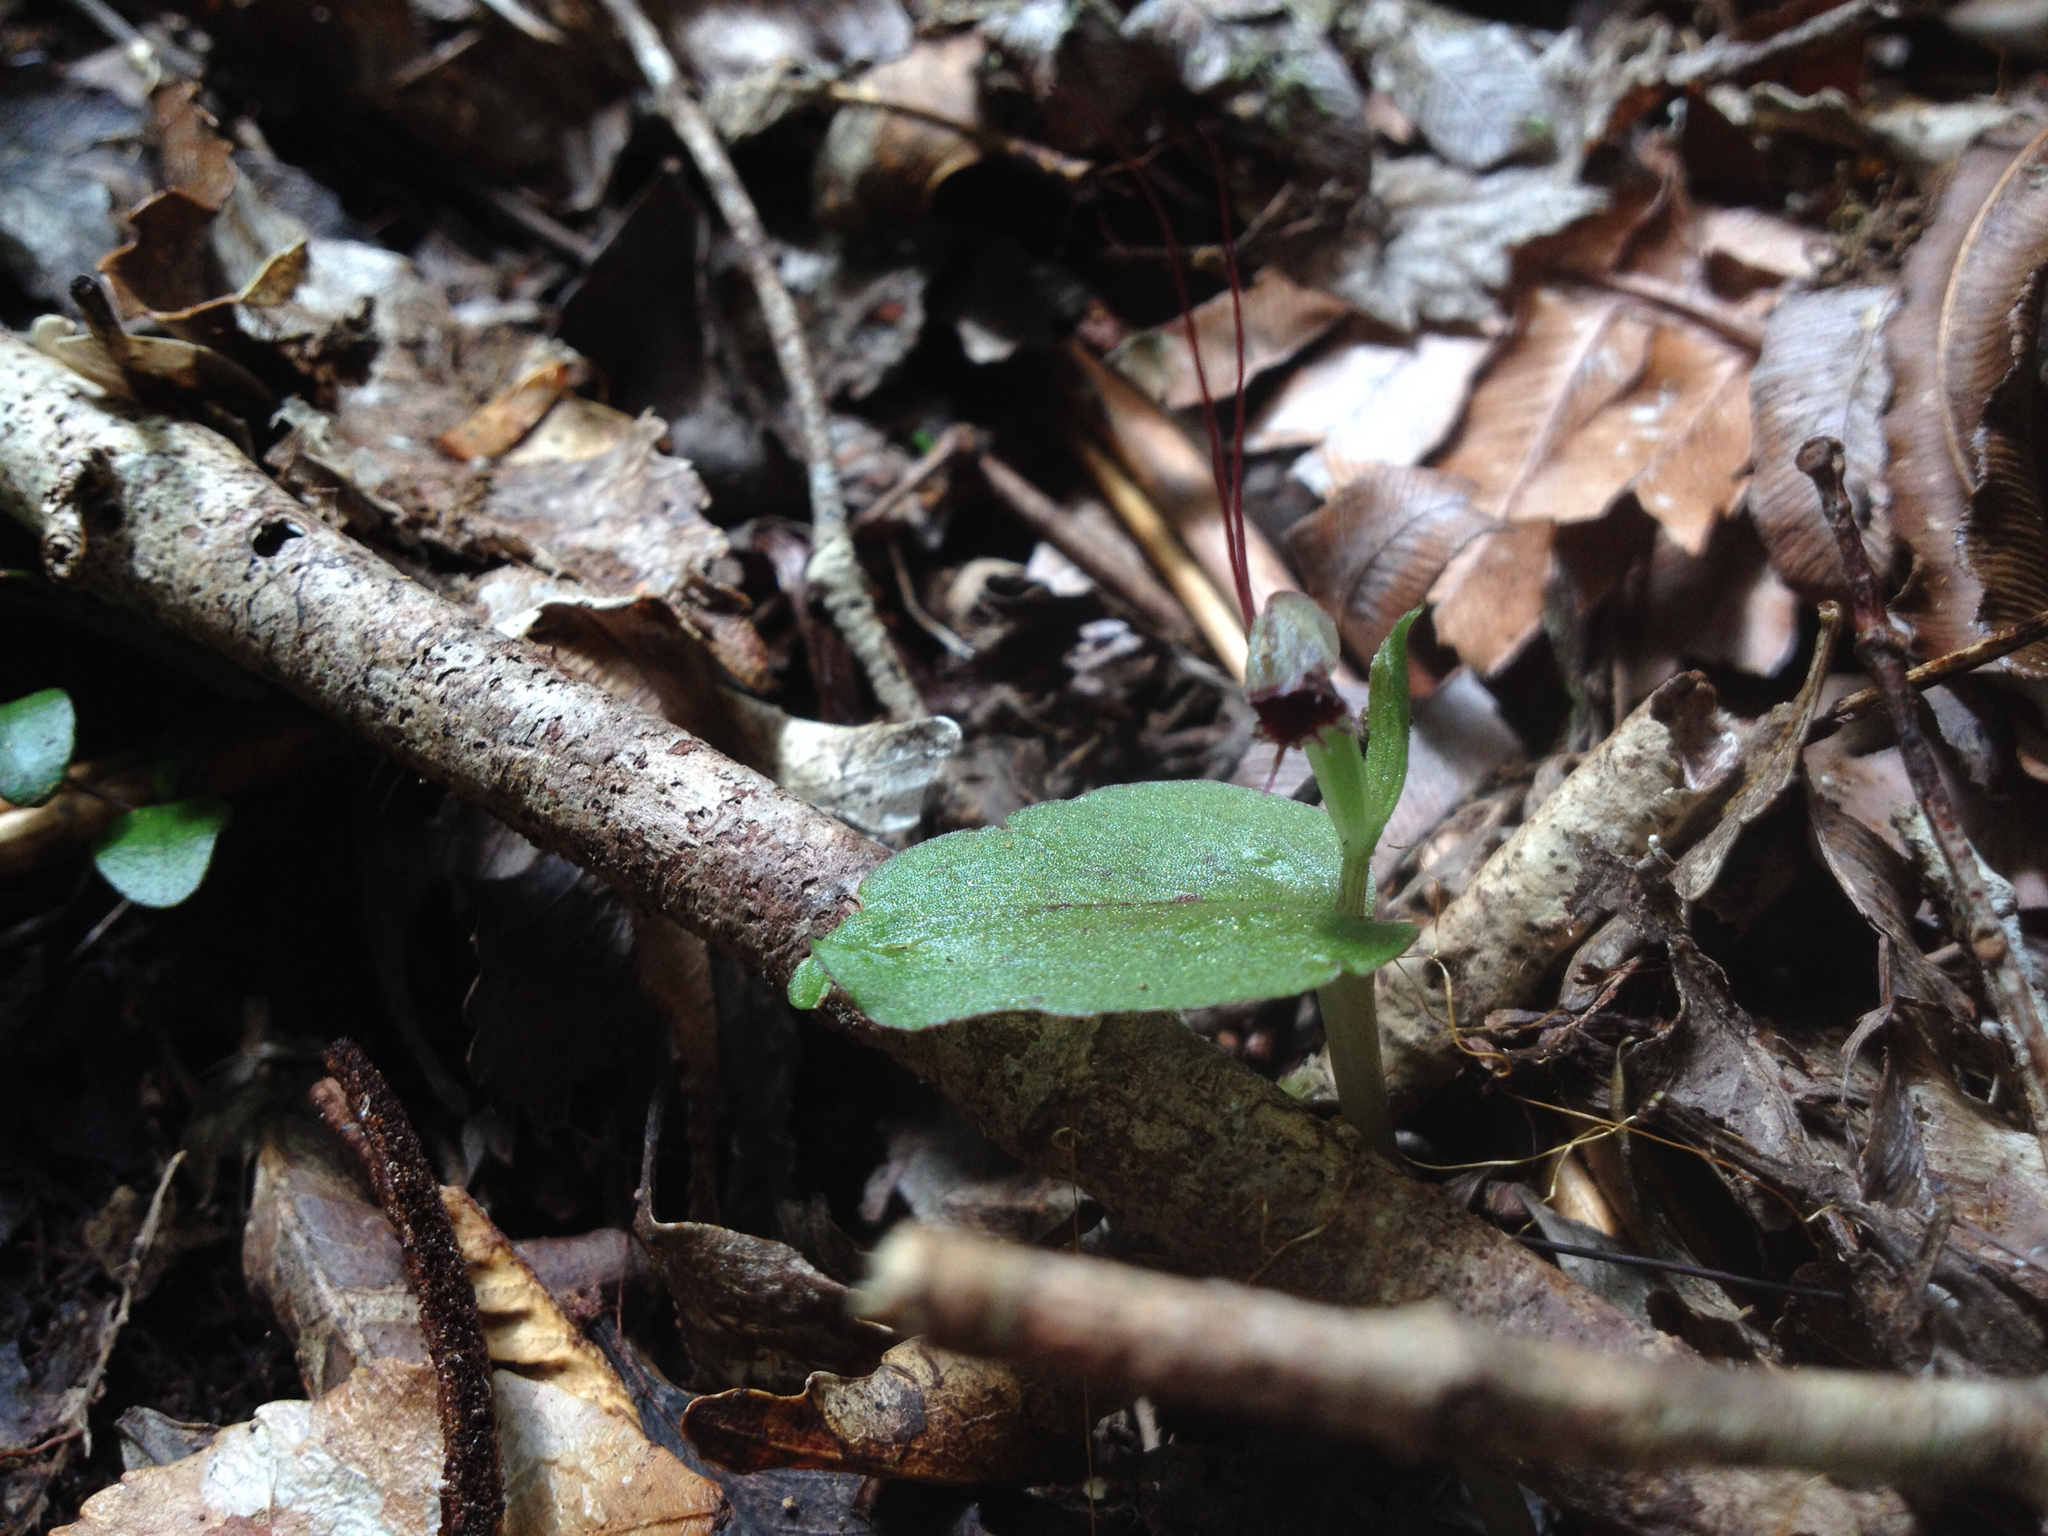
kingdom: Plantae
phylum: Tracheophyta
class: Liliopsida
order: Asparagales
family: Orchidaceae
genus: Corybas
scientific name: Corybas oblongus
